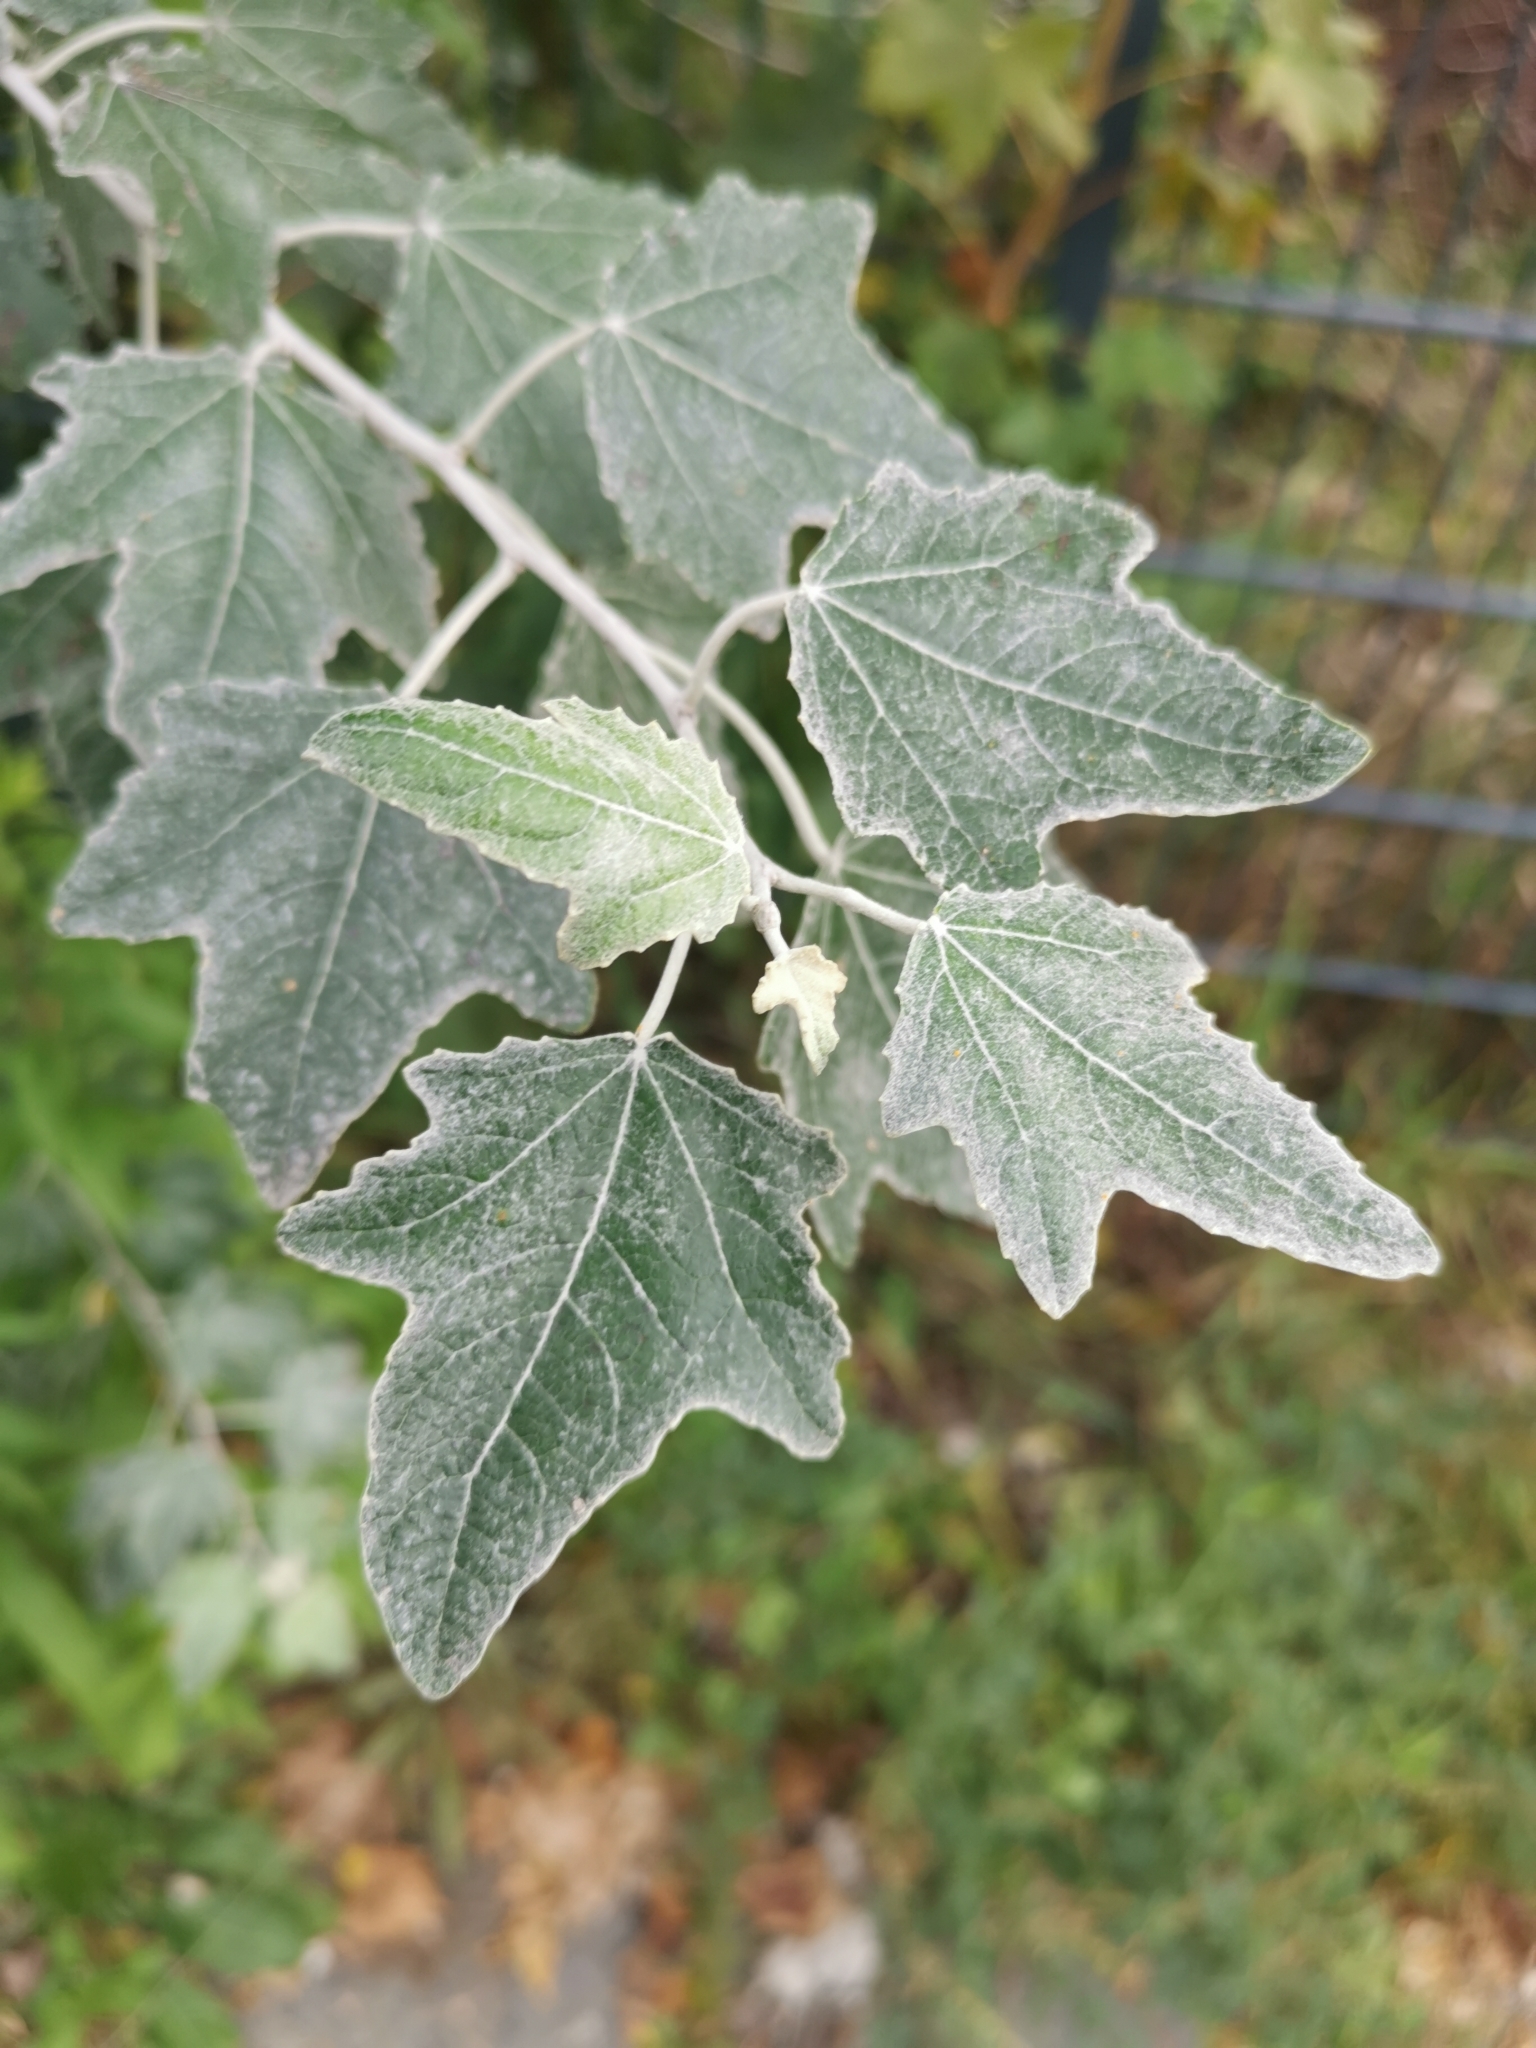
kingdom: Plantae
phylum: Tracheophyta
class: Magnoliopsida
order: Malpighiales
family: Salicaceae
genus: Populus
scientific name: Populus alba
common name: White poplar
